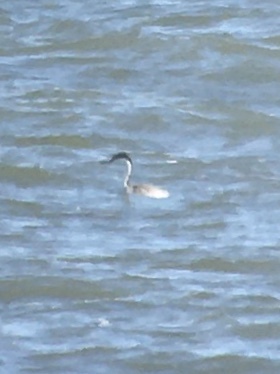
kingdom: Animalia
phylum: Chordata
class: Aves
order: Podicipediformes
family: Podicipedidae
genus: Aechmophorus
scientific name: Aechmophorus occidentalis
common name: Western grebe
